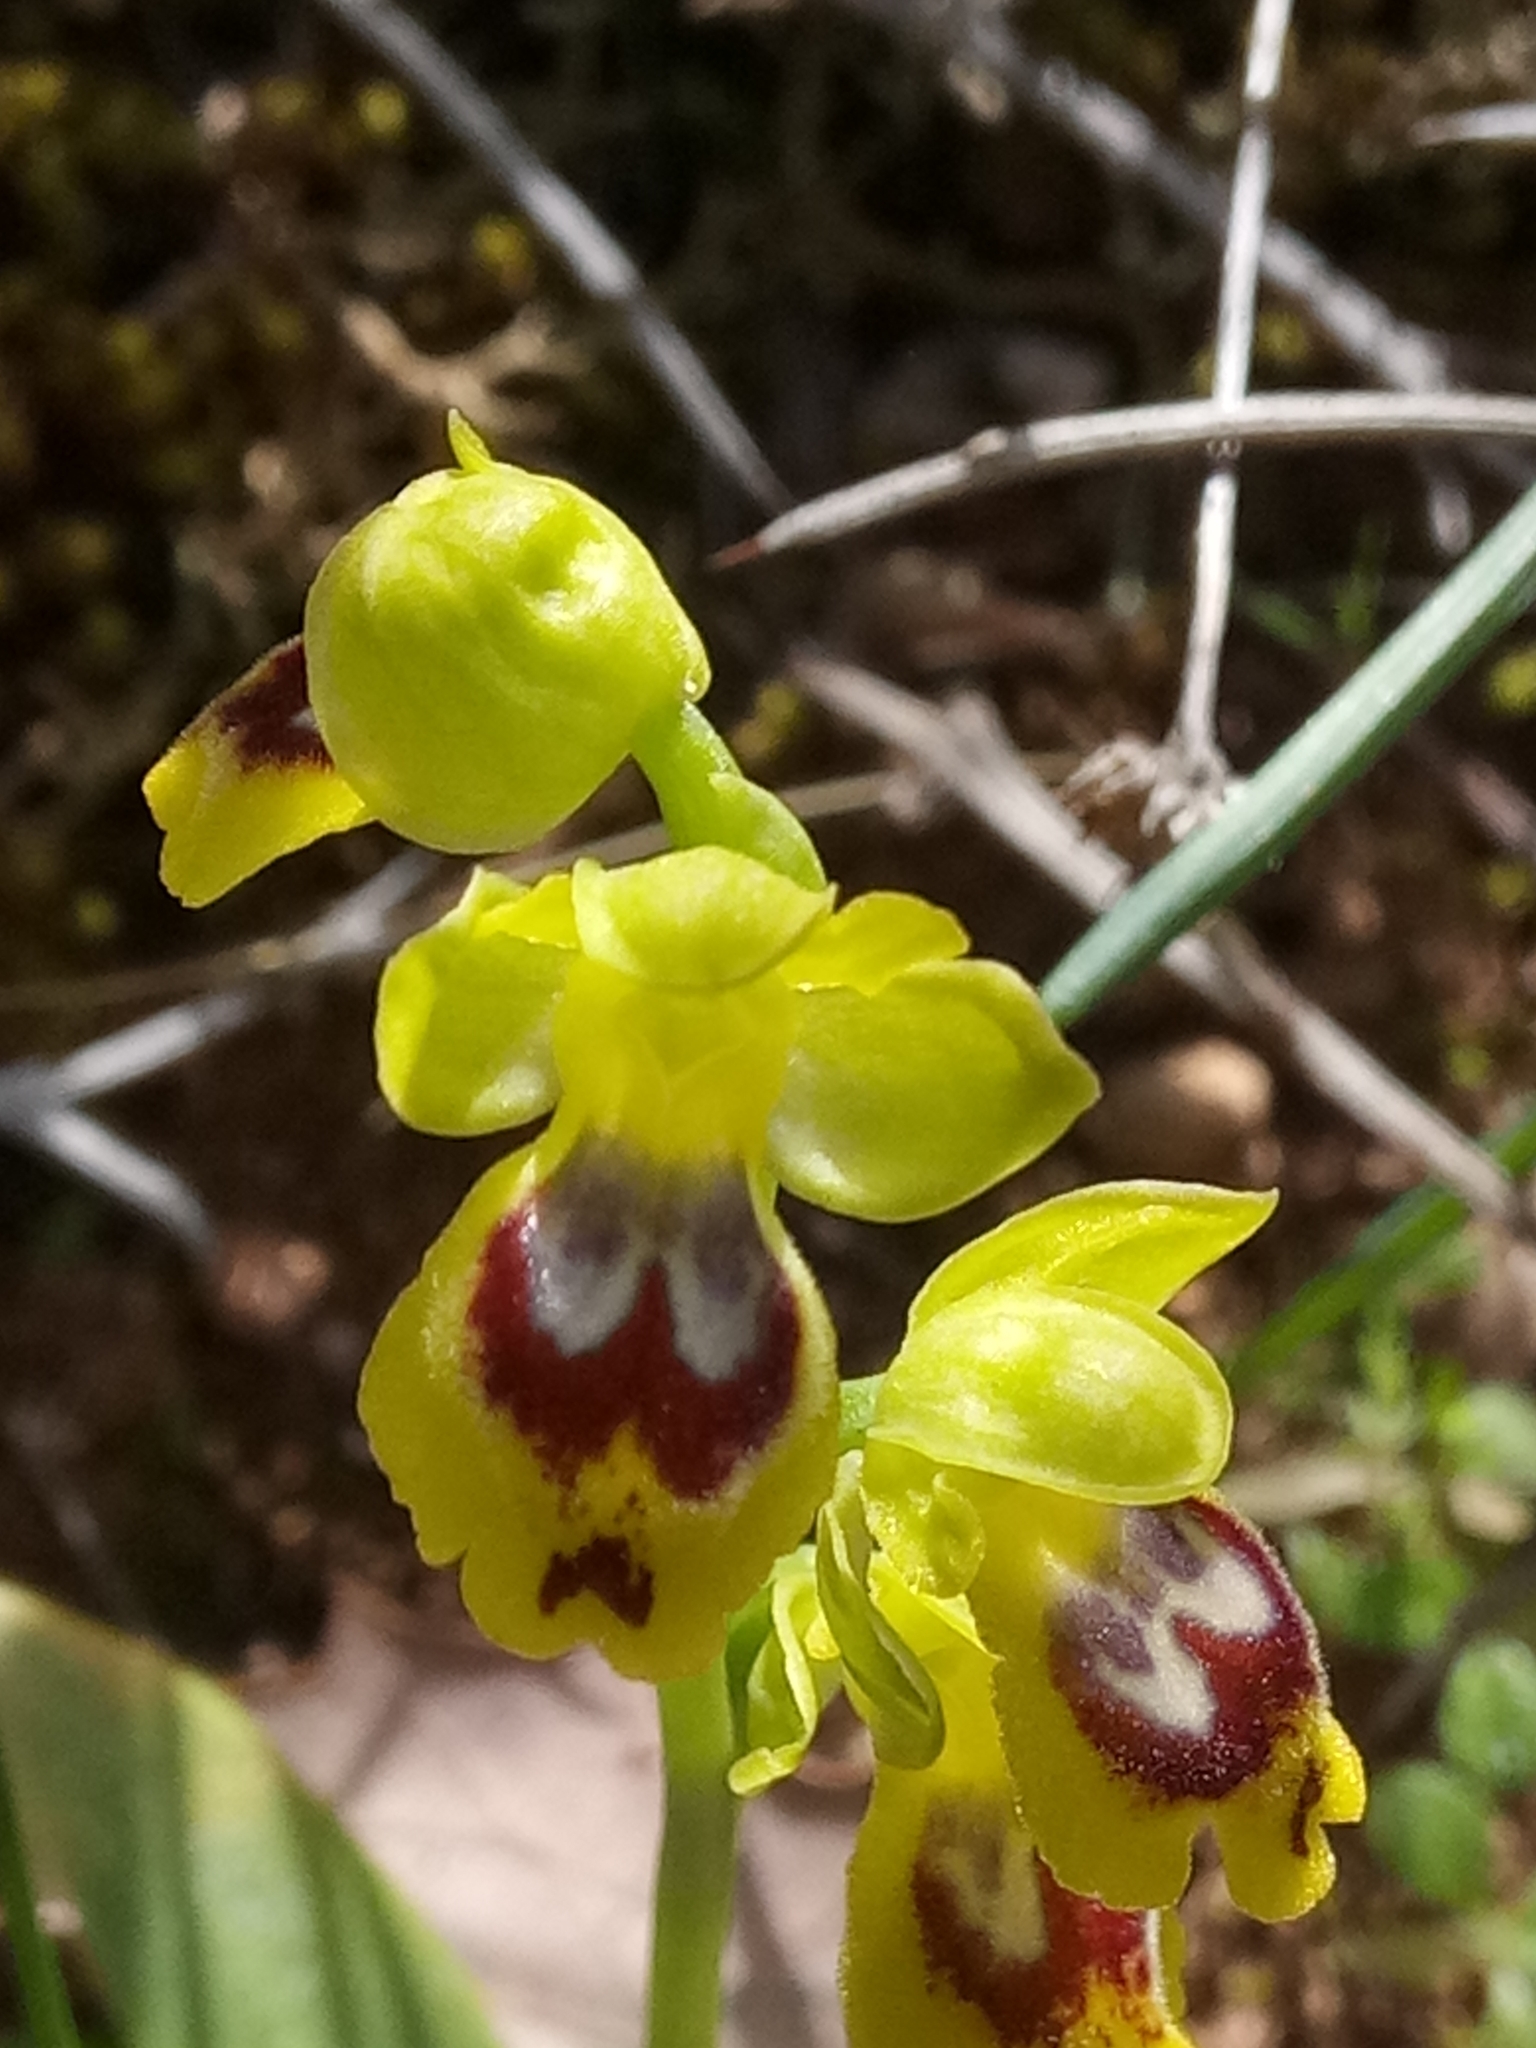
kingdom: Plantae
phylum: Tracheophyta
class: Liliopsida
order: Asparagales
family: Orchidaceae
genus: Ophrys
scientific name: Ophrys battandieri
